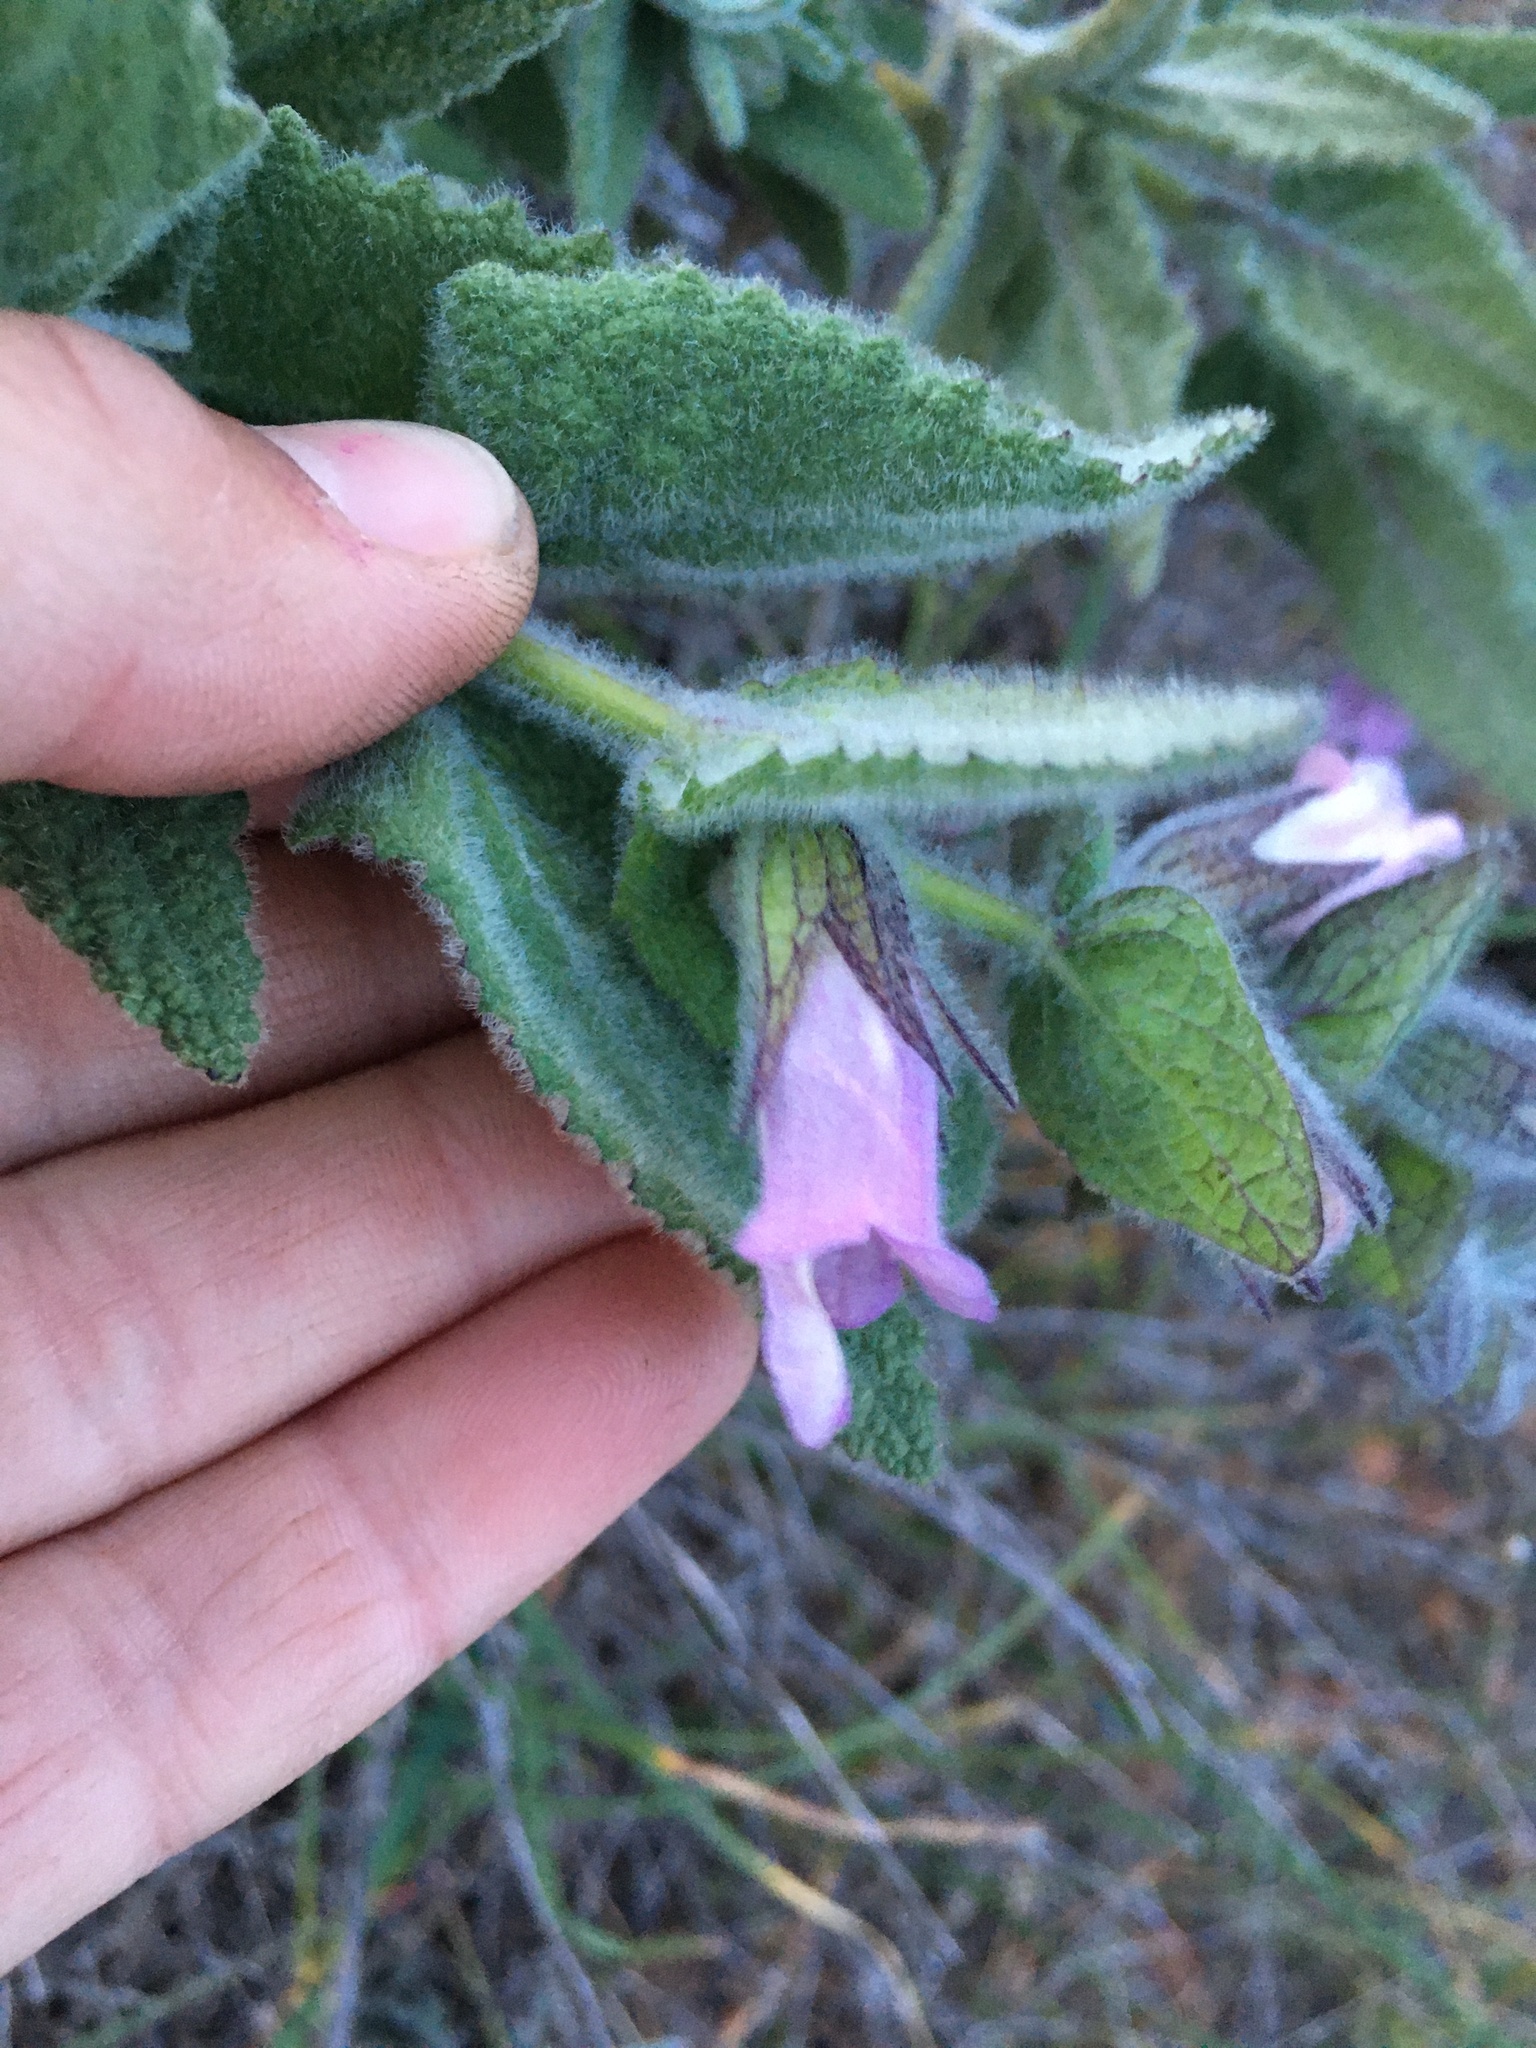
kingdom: Plantae
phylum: Tracheophyta
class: Magnoliopsida
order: Lamiales
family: Lamiaceae
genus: Lepechinia
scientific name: Lepechinia fragrans
